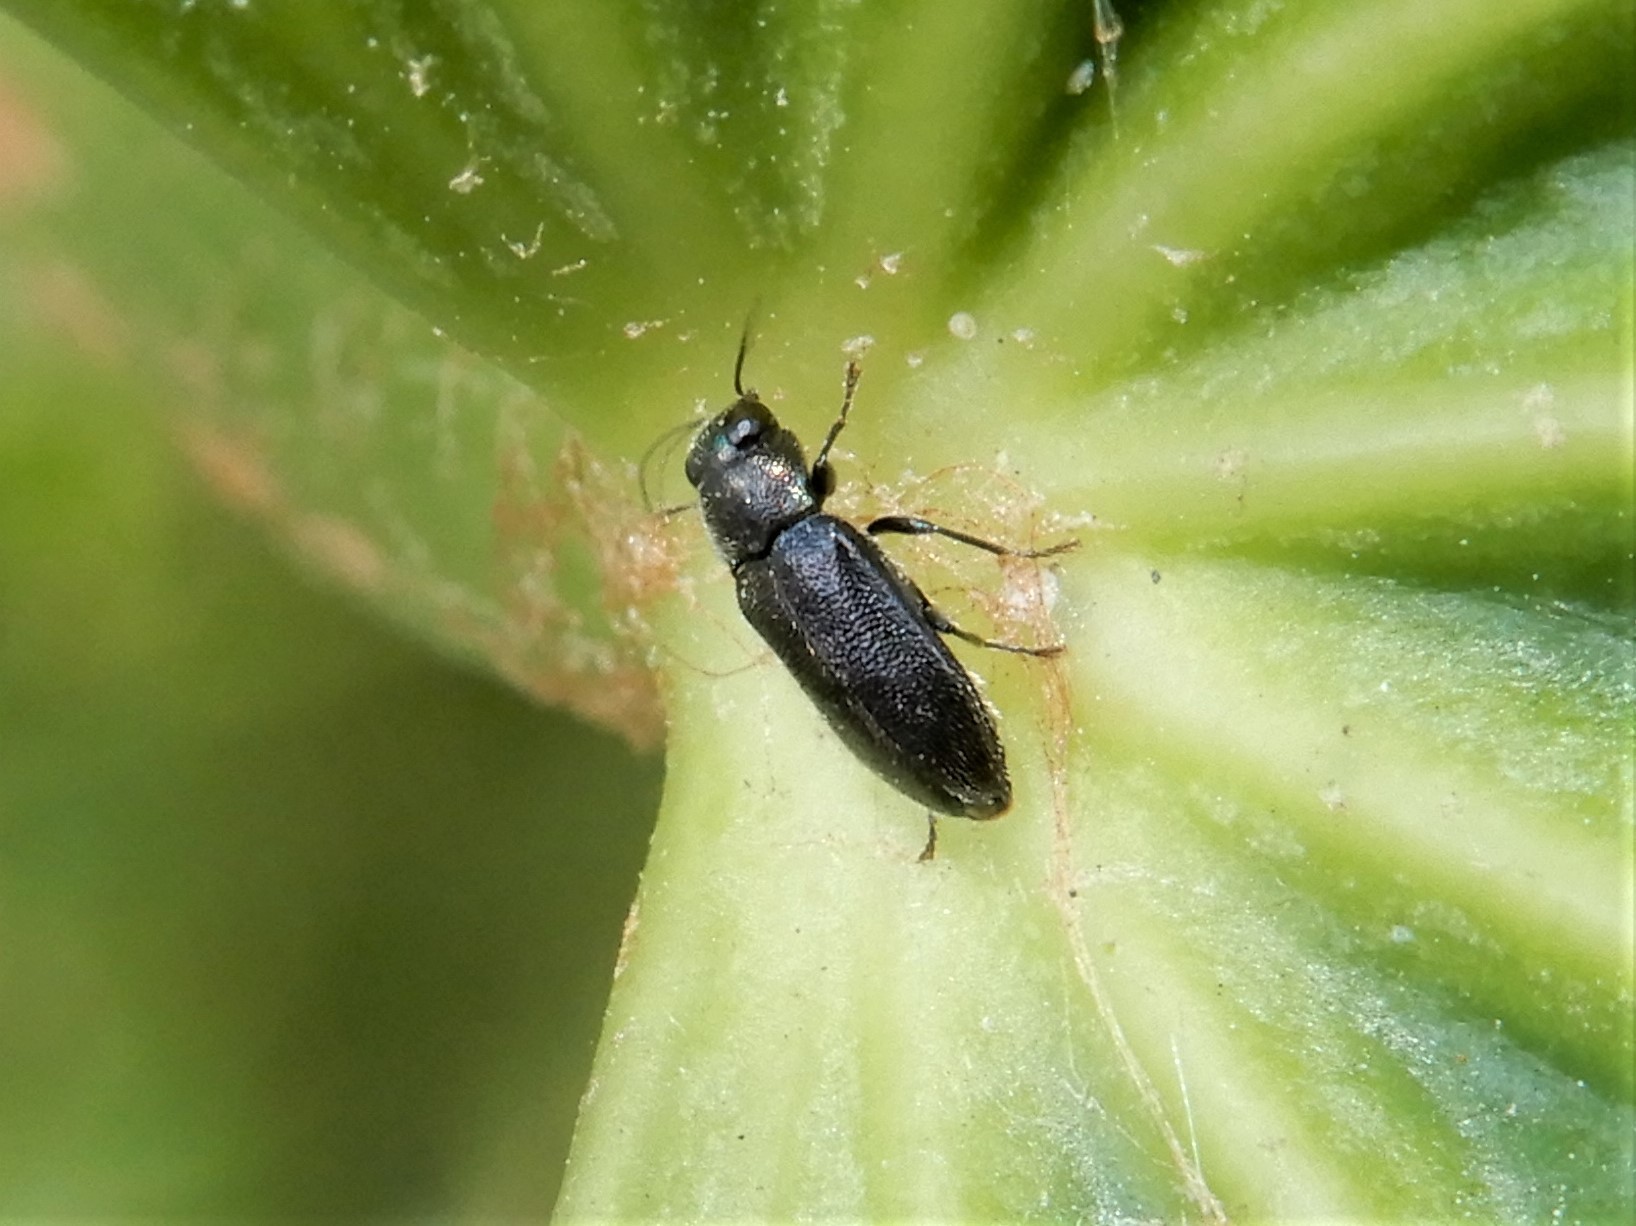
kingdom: Animalia
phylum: Arthropoda
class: Insecta
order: Coleoptera
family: Buprestidae
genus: Maoraxia
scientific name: Maoraxia eremita
